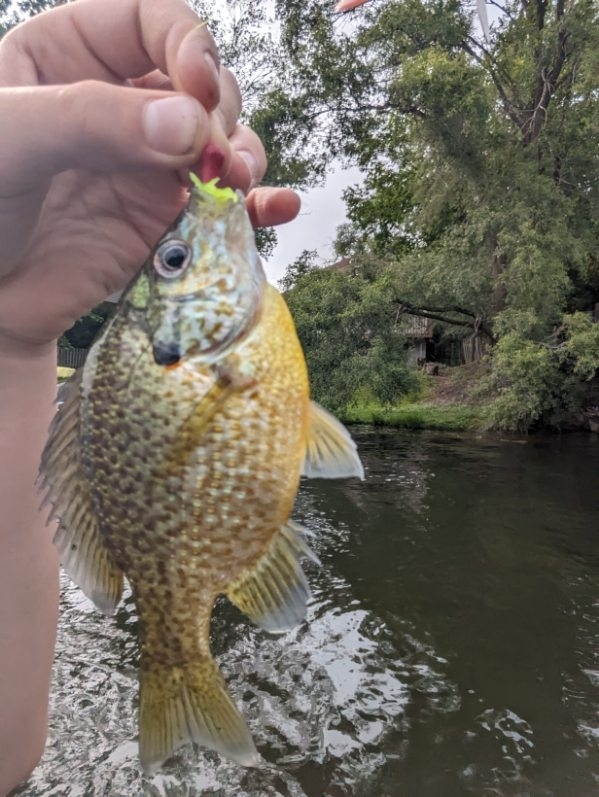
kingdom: Animalia
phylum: Chordata
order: Perciformes
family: Centrarchidae
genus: Lepomis
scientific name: Lepomis
